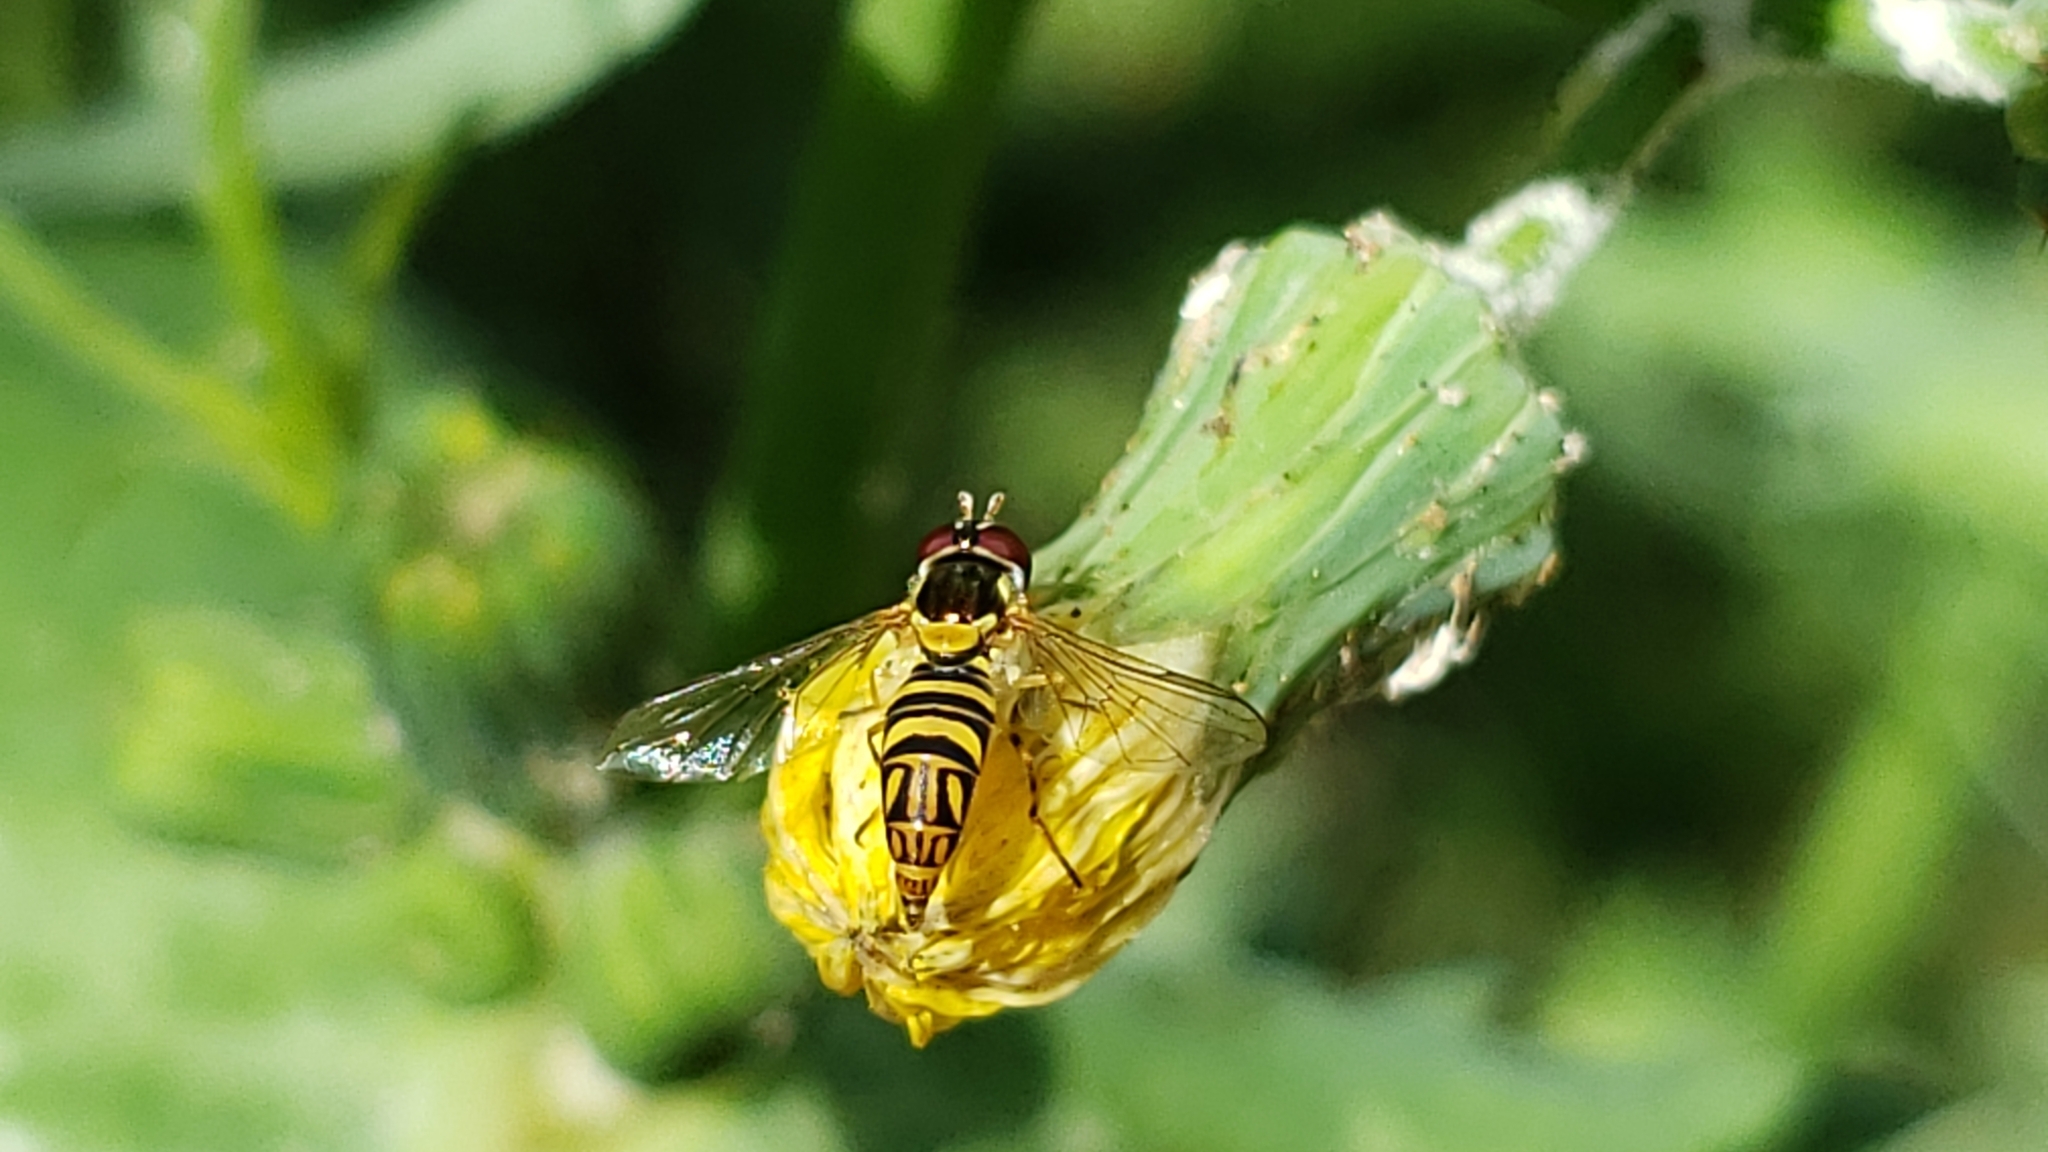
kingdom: Animalia
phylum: Arthropoda
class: Insecta
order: Diptera
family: Syrphidae
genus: Allograpta
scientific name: Allograpta obliqua
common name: Common oblique syrphid
